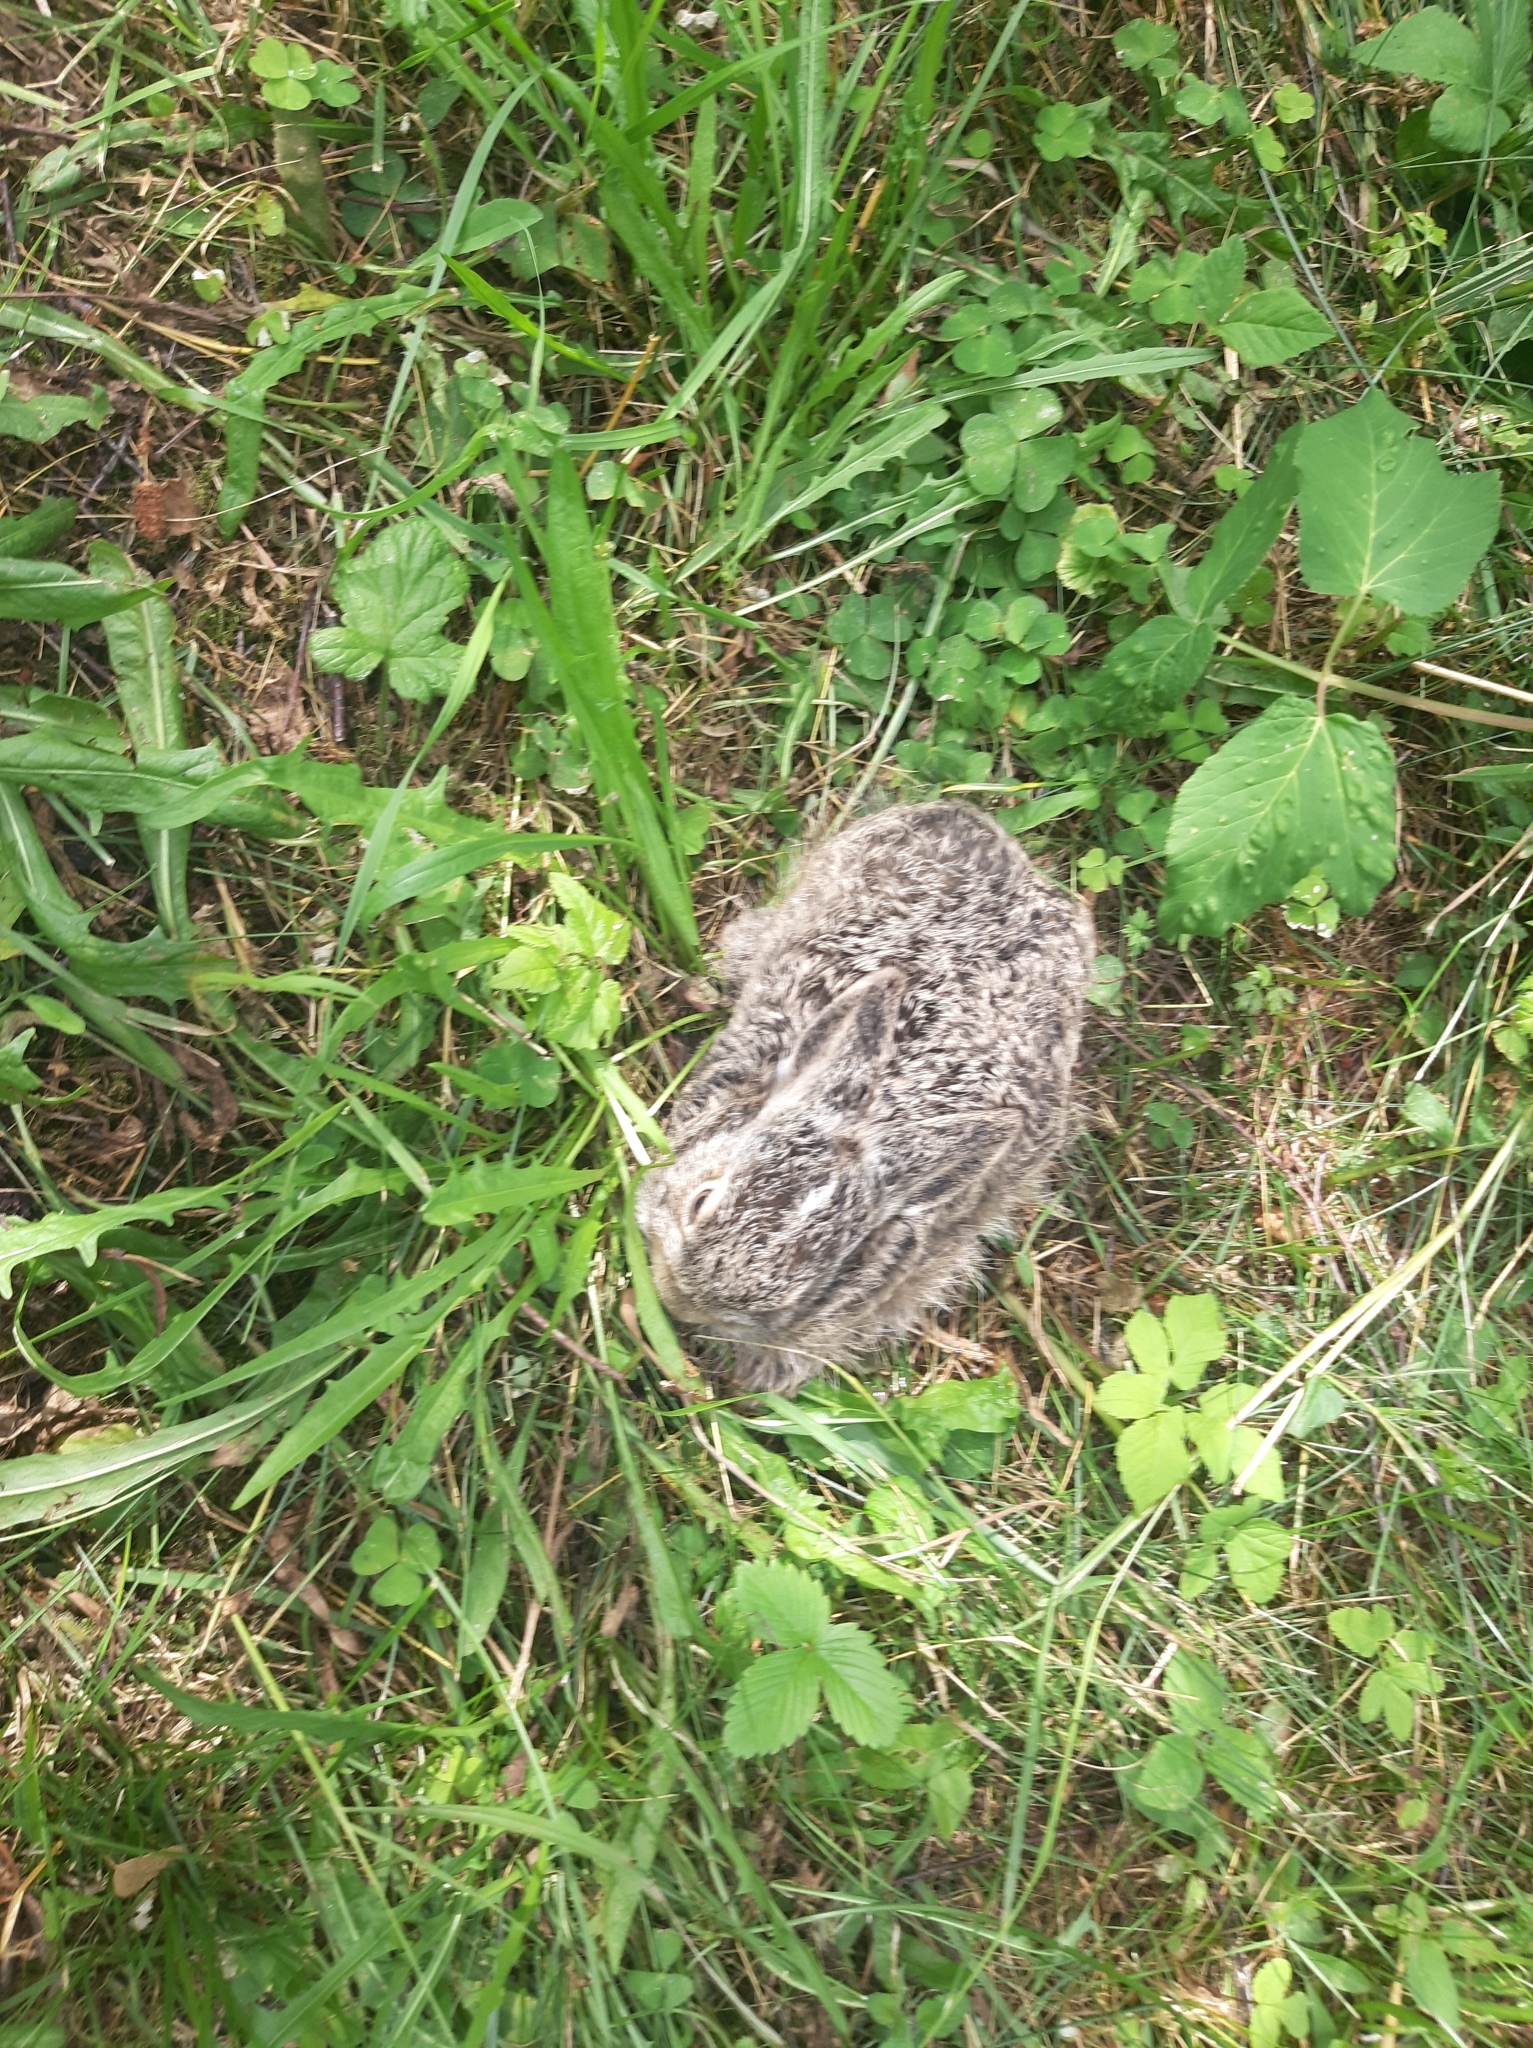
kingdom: Animalia
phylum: Chordata
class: Mammalia
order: Lagomorpha
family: Leporidae
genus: Lepus
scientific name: Lepus europaeus
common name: European hare
